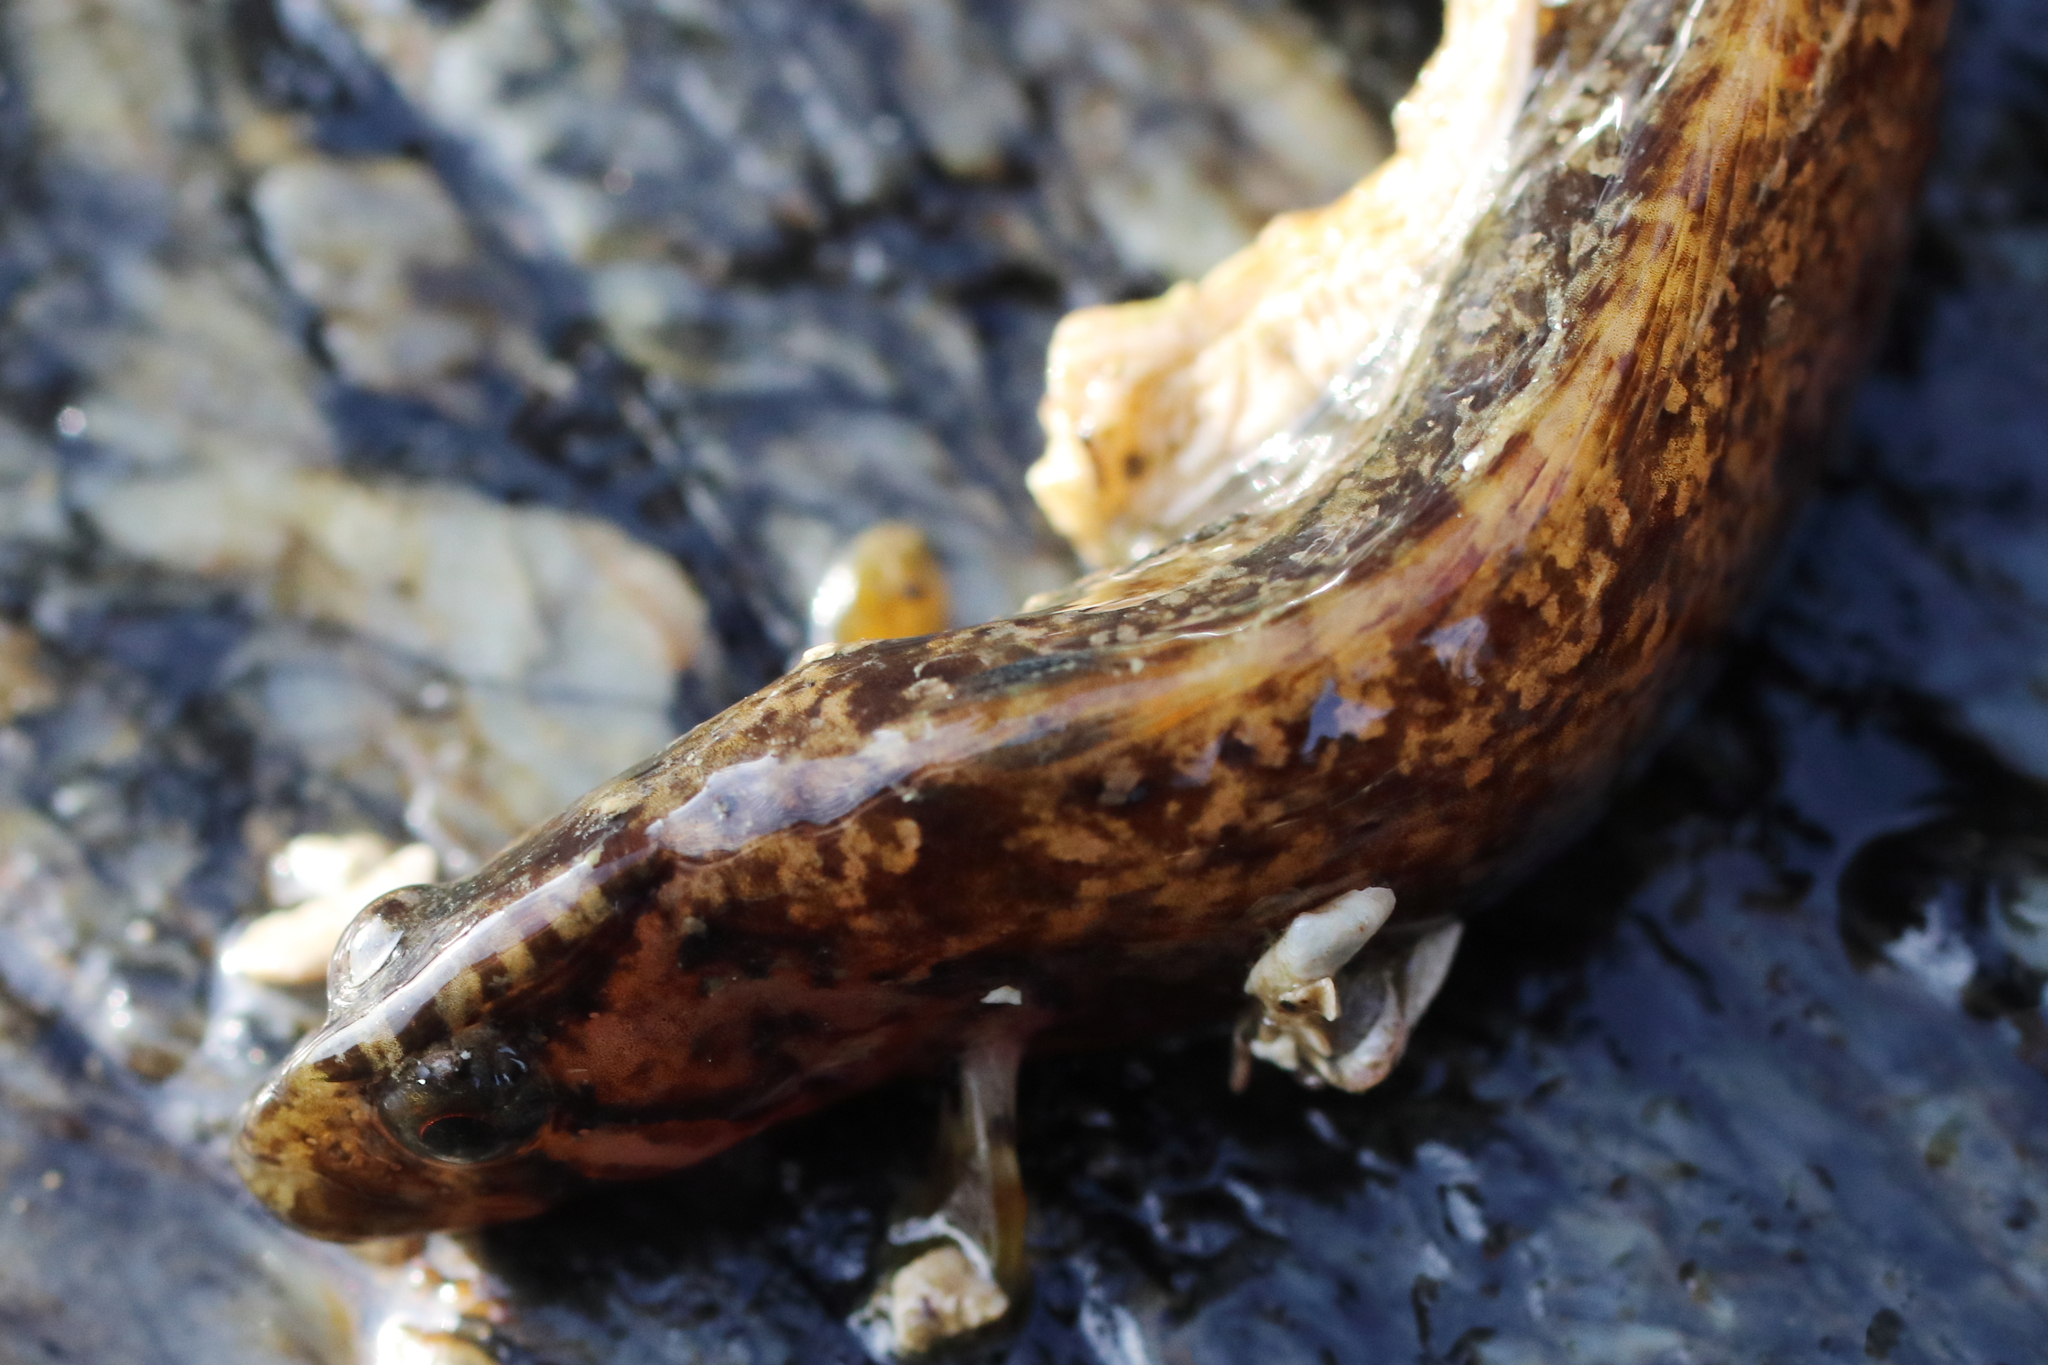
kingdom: Animalia
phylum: Chordata
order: Perciformes
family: Stichaeidae
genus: Xiphister
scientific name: Xiphister mucosus
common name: Rock prickleback
